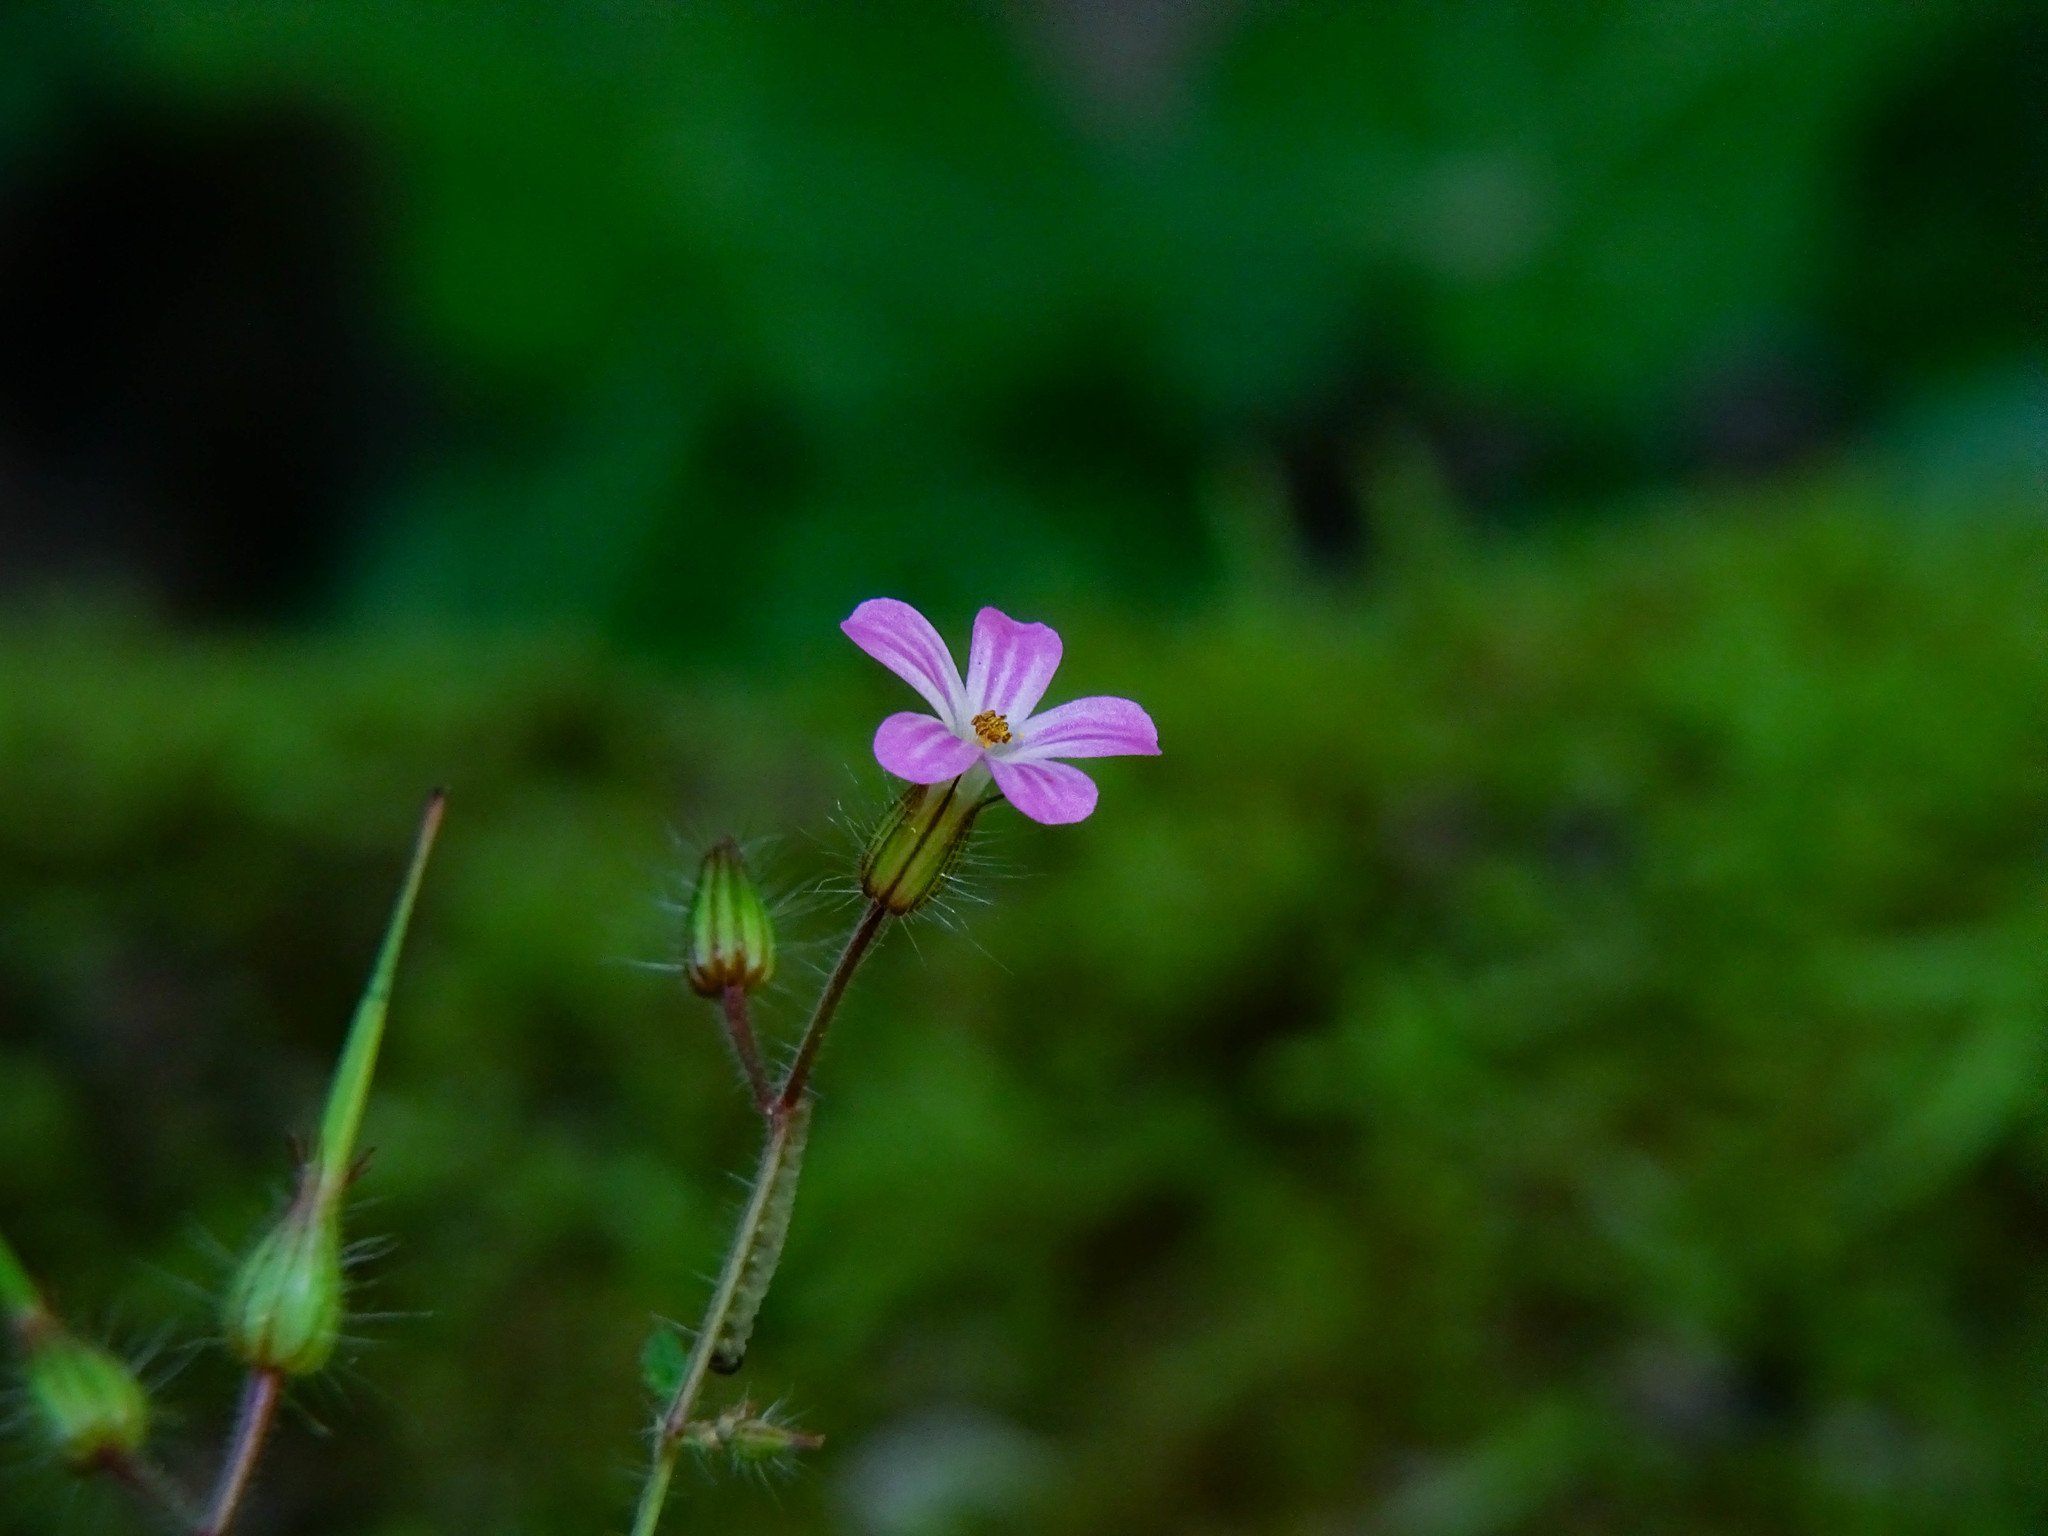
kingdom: Plantae
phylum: Tracheophyta
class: Magnoliopsida
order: Geraniales
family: Geraniaceae
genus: Geranium
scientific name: Geranium robertianum
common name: Herb-robert
